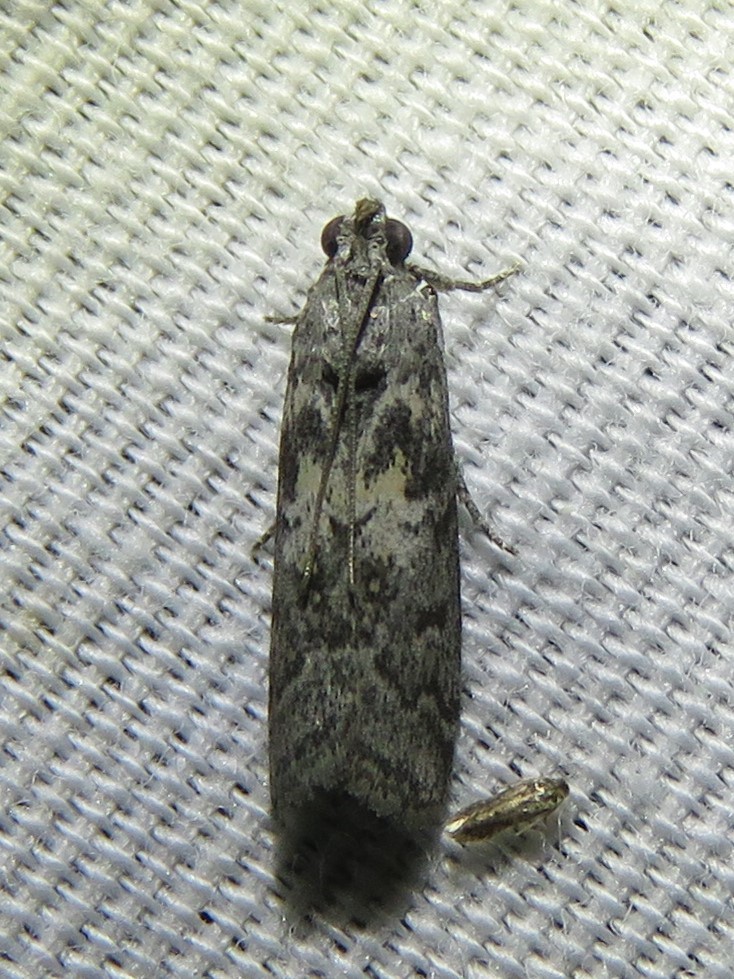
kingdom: Animalia
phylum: Arthropoda
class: Insecta
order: Lepidoptera
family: Pyralidae
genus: Tacoma
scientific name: Tacoma feriella
